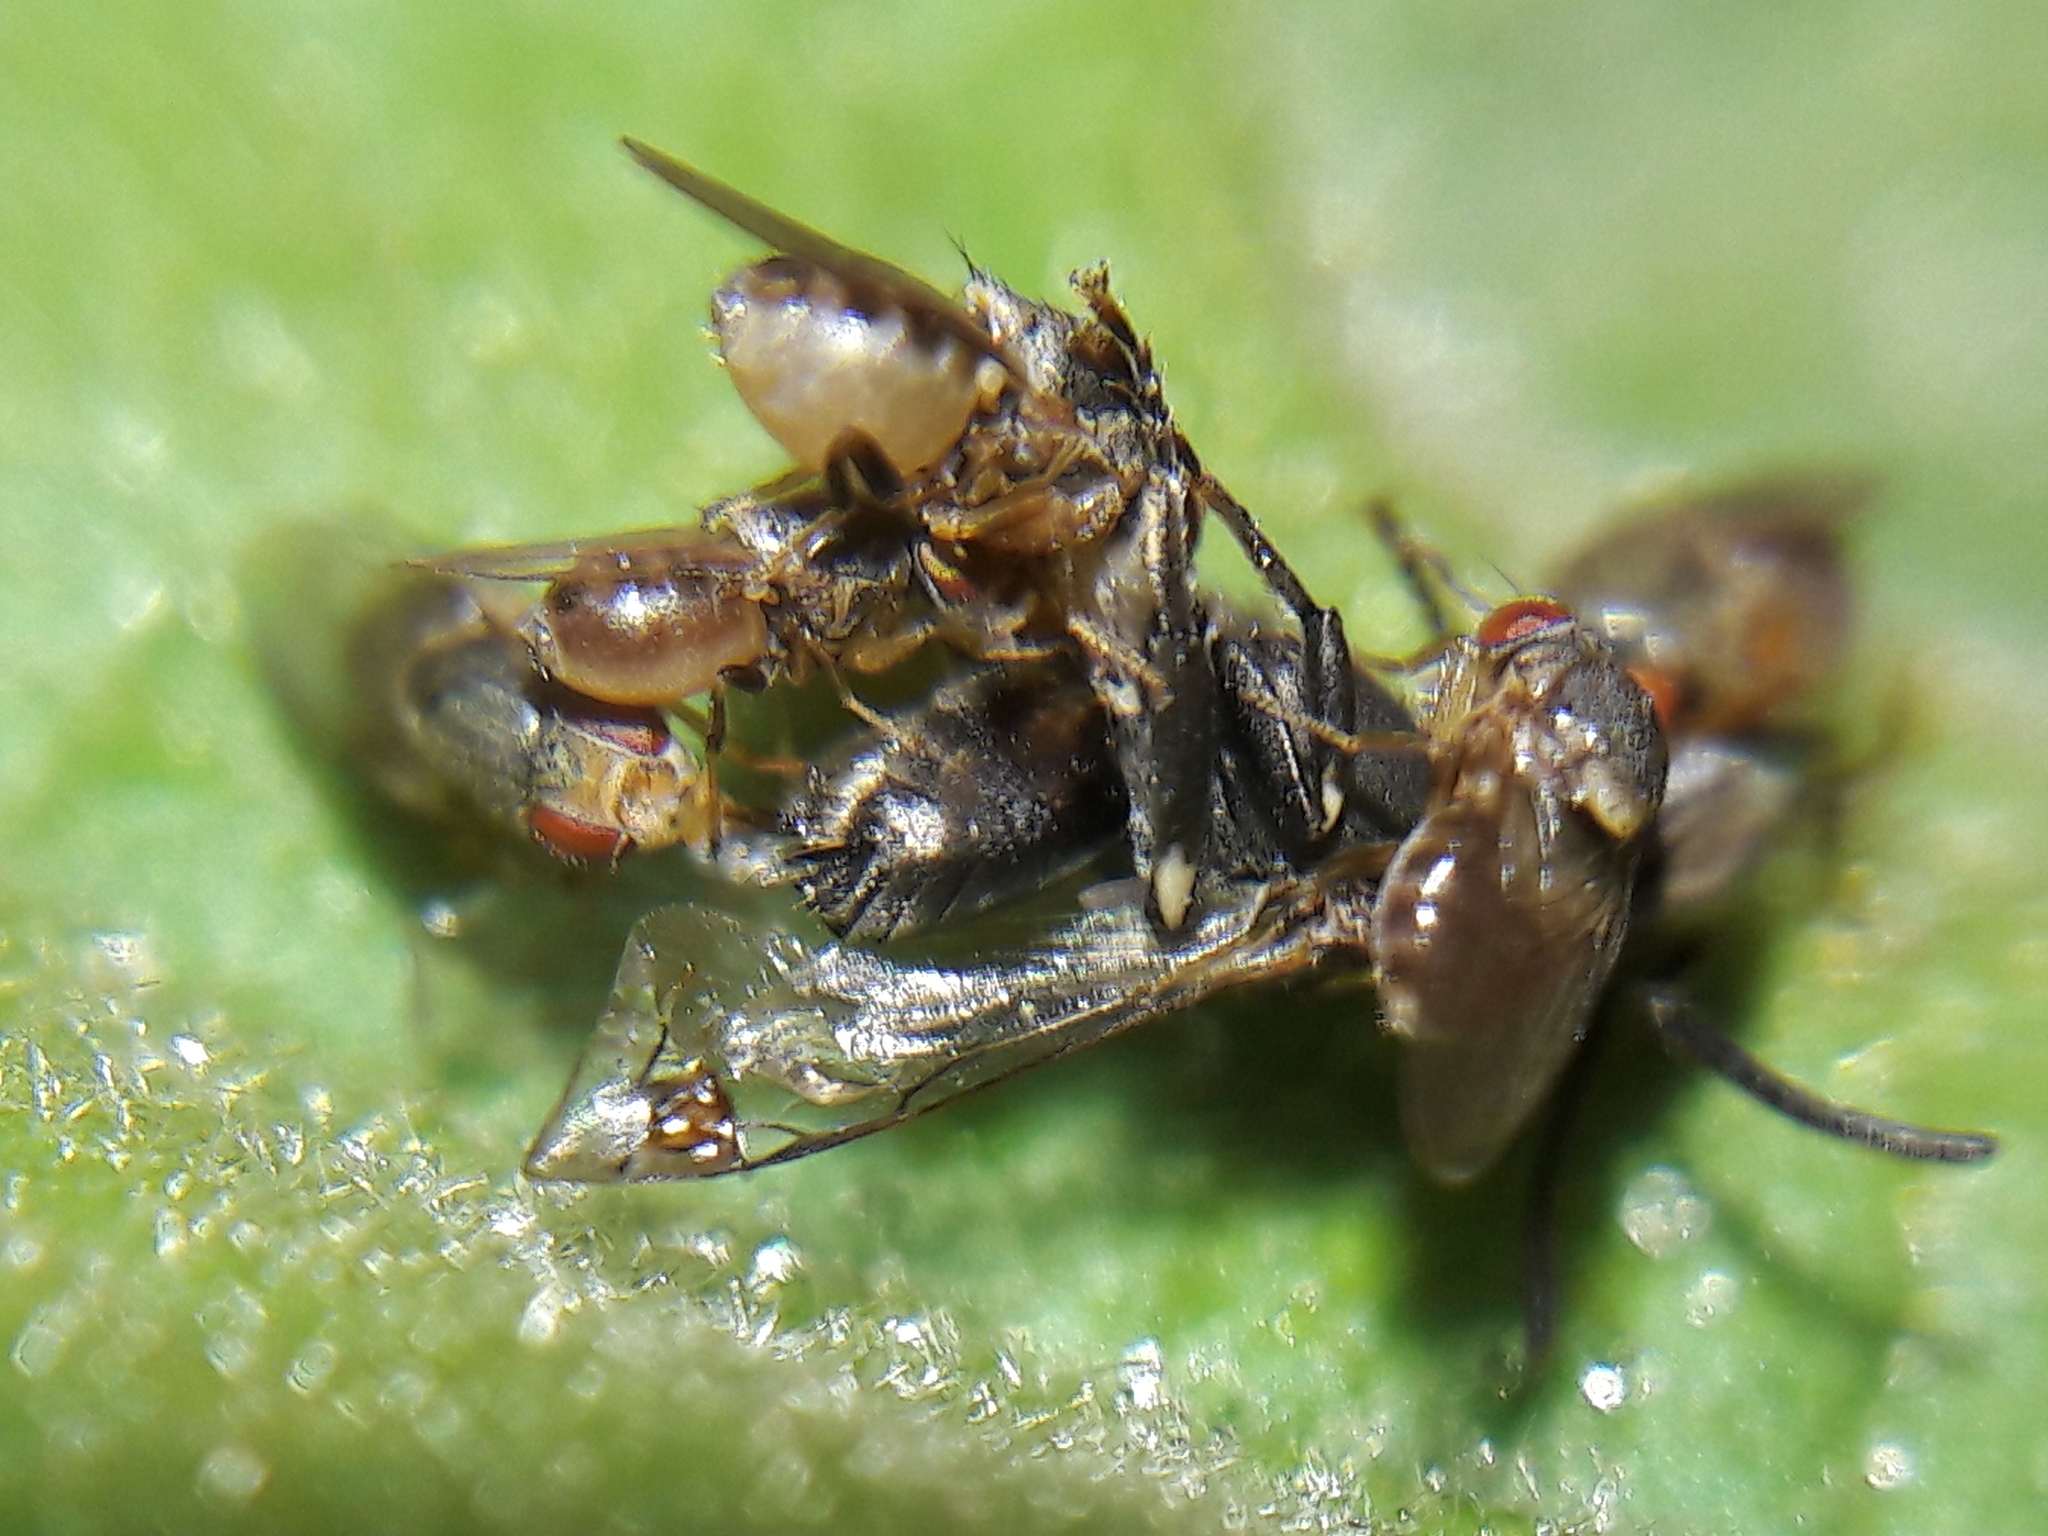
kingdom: Animalia
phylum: Arthropoda
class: Insecta
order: Hymenoptera
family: Apidae
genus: Paratrigona
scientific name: Paratrigona lineata
